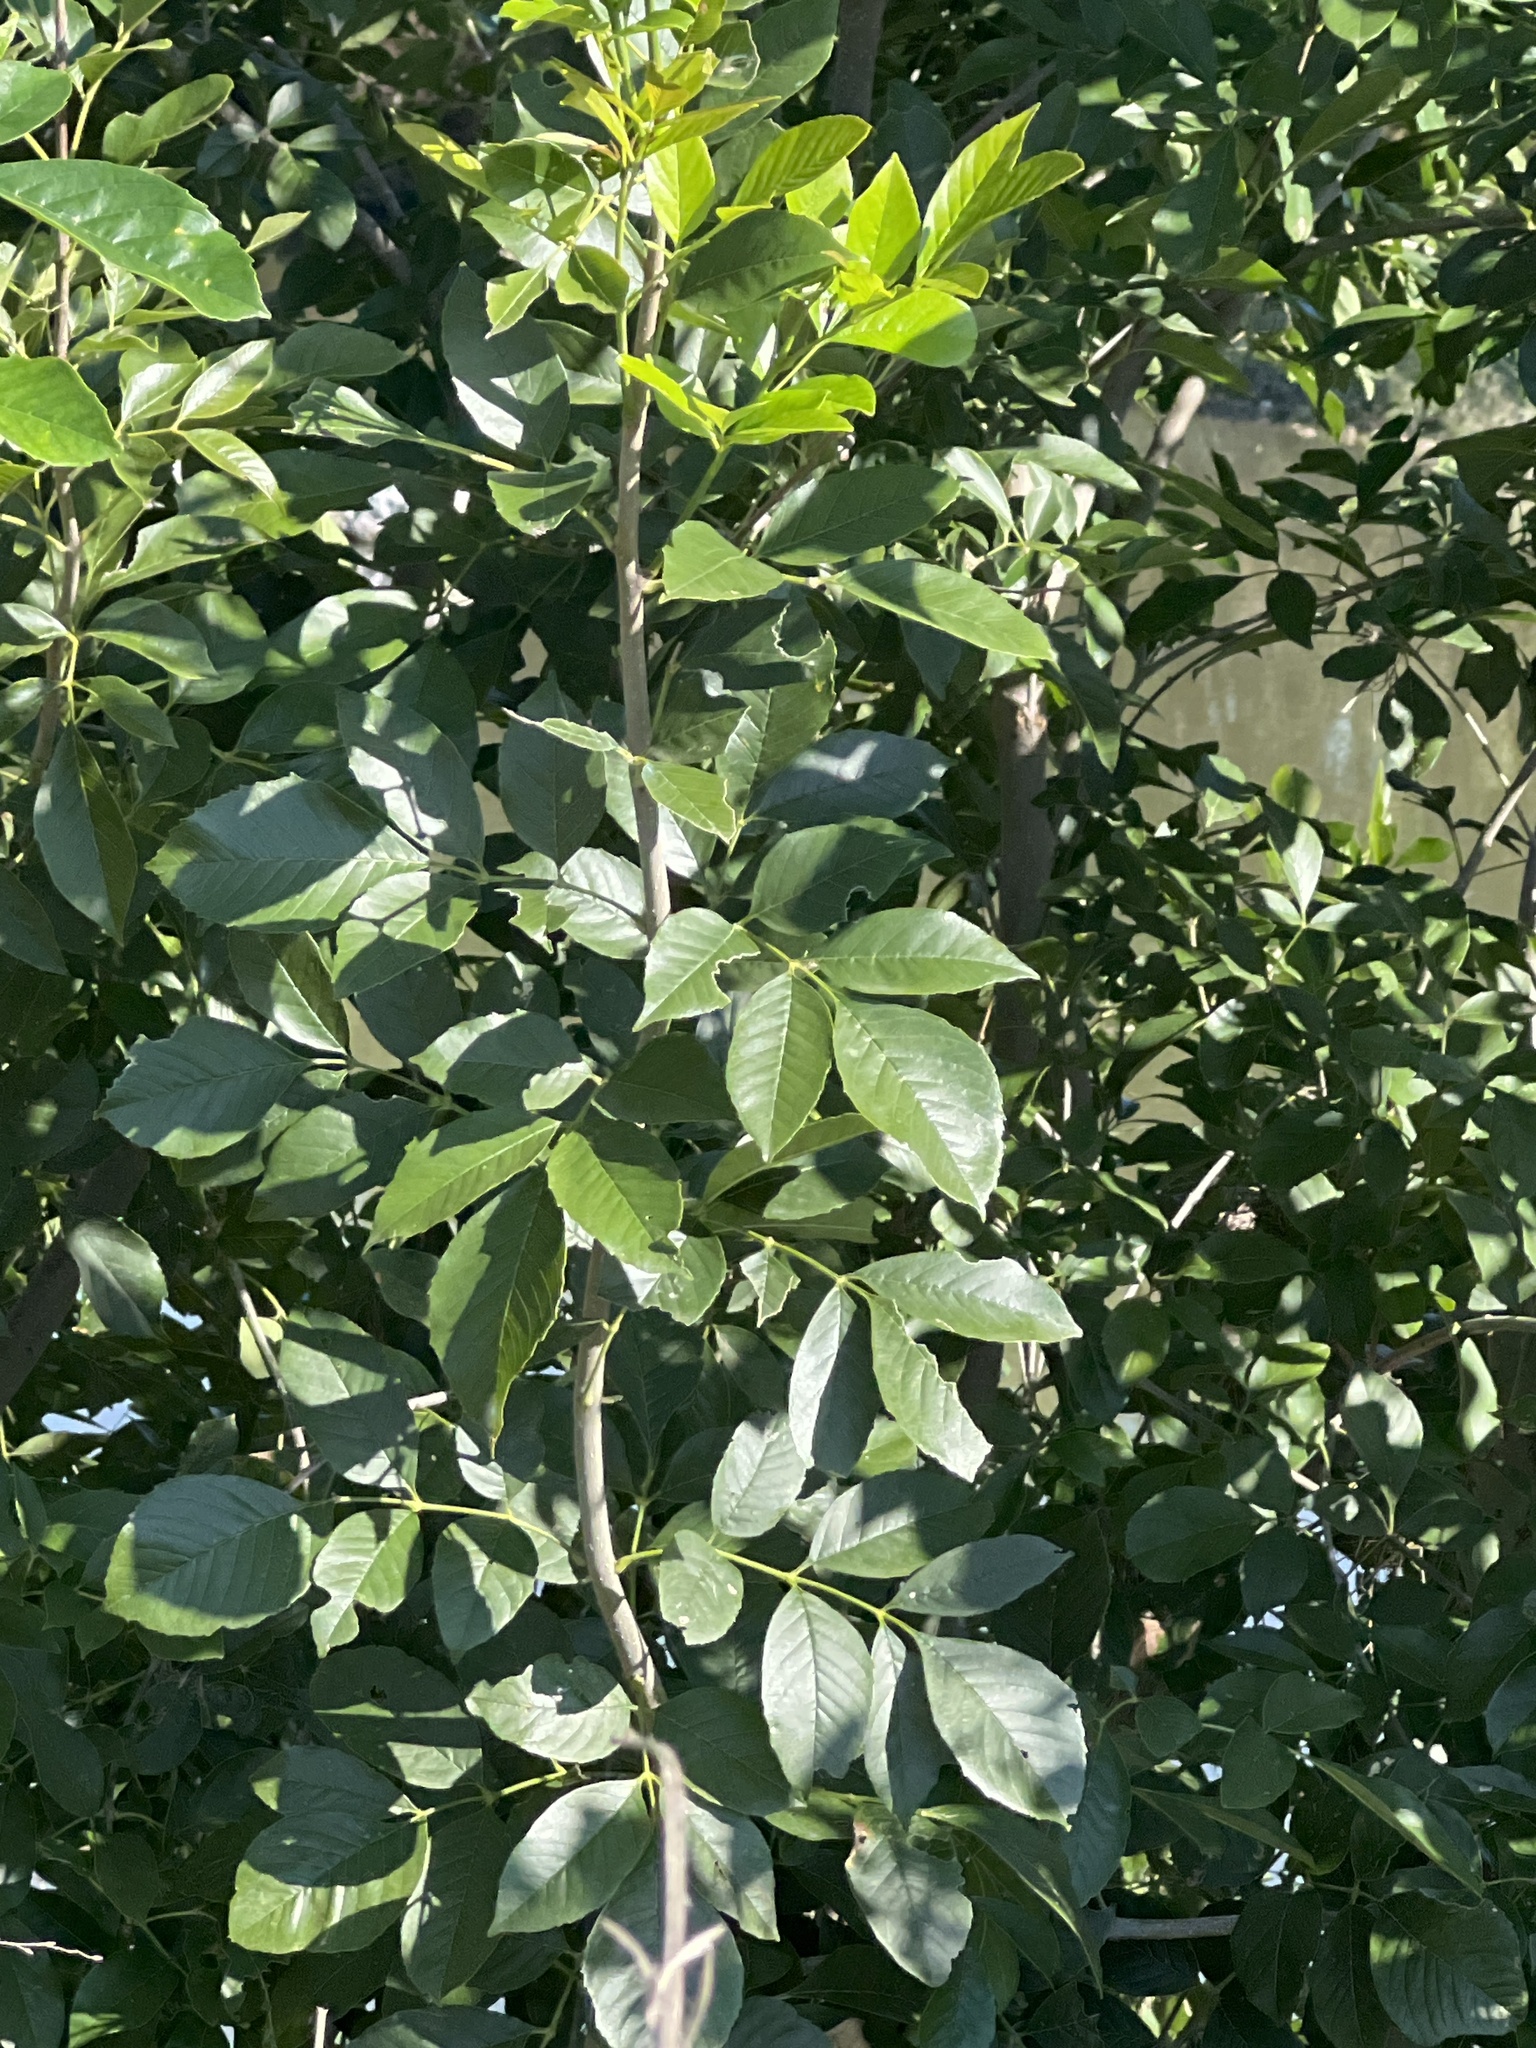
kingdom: Plantae
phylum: Tracheophyta
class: Magnoliopsida
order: Lamiales
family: Oleaceae
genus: Fraxinus
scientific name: Fraxinus berlandieriana
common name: Berlandier ash
